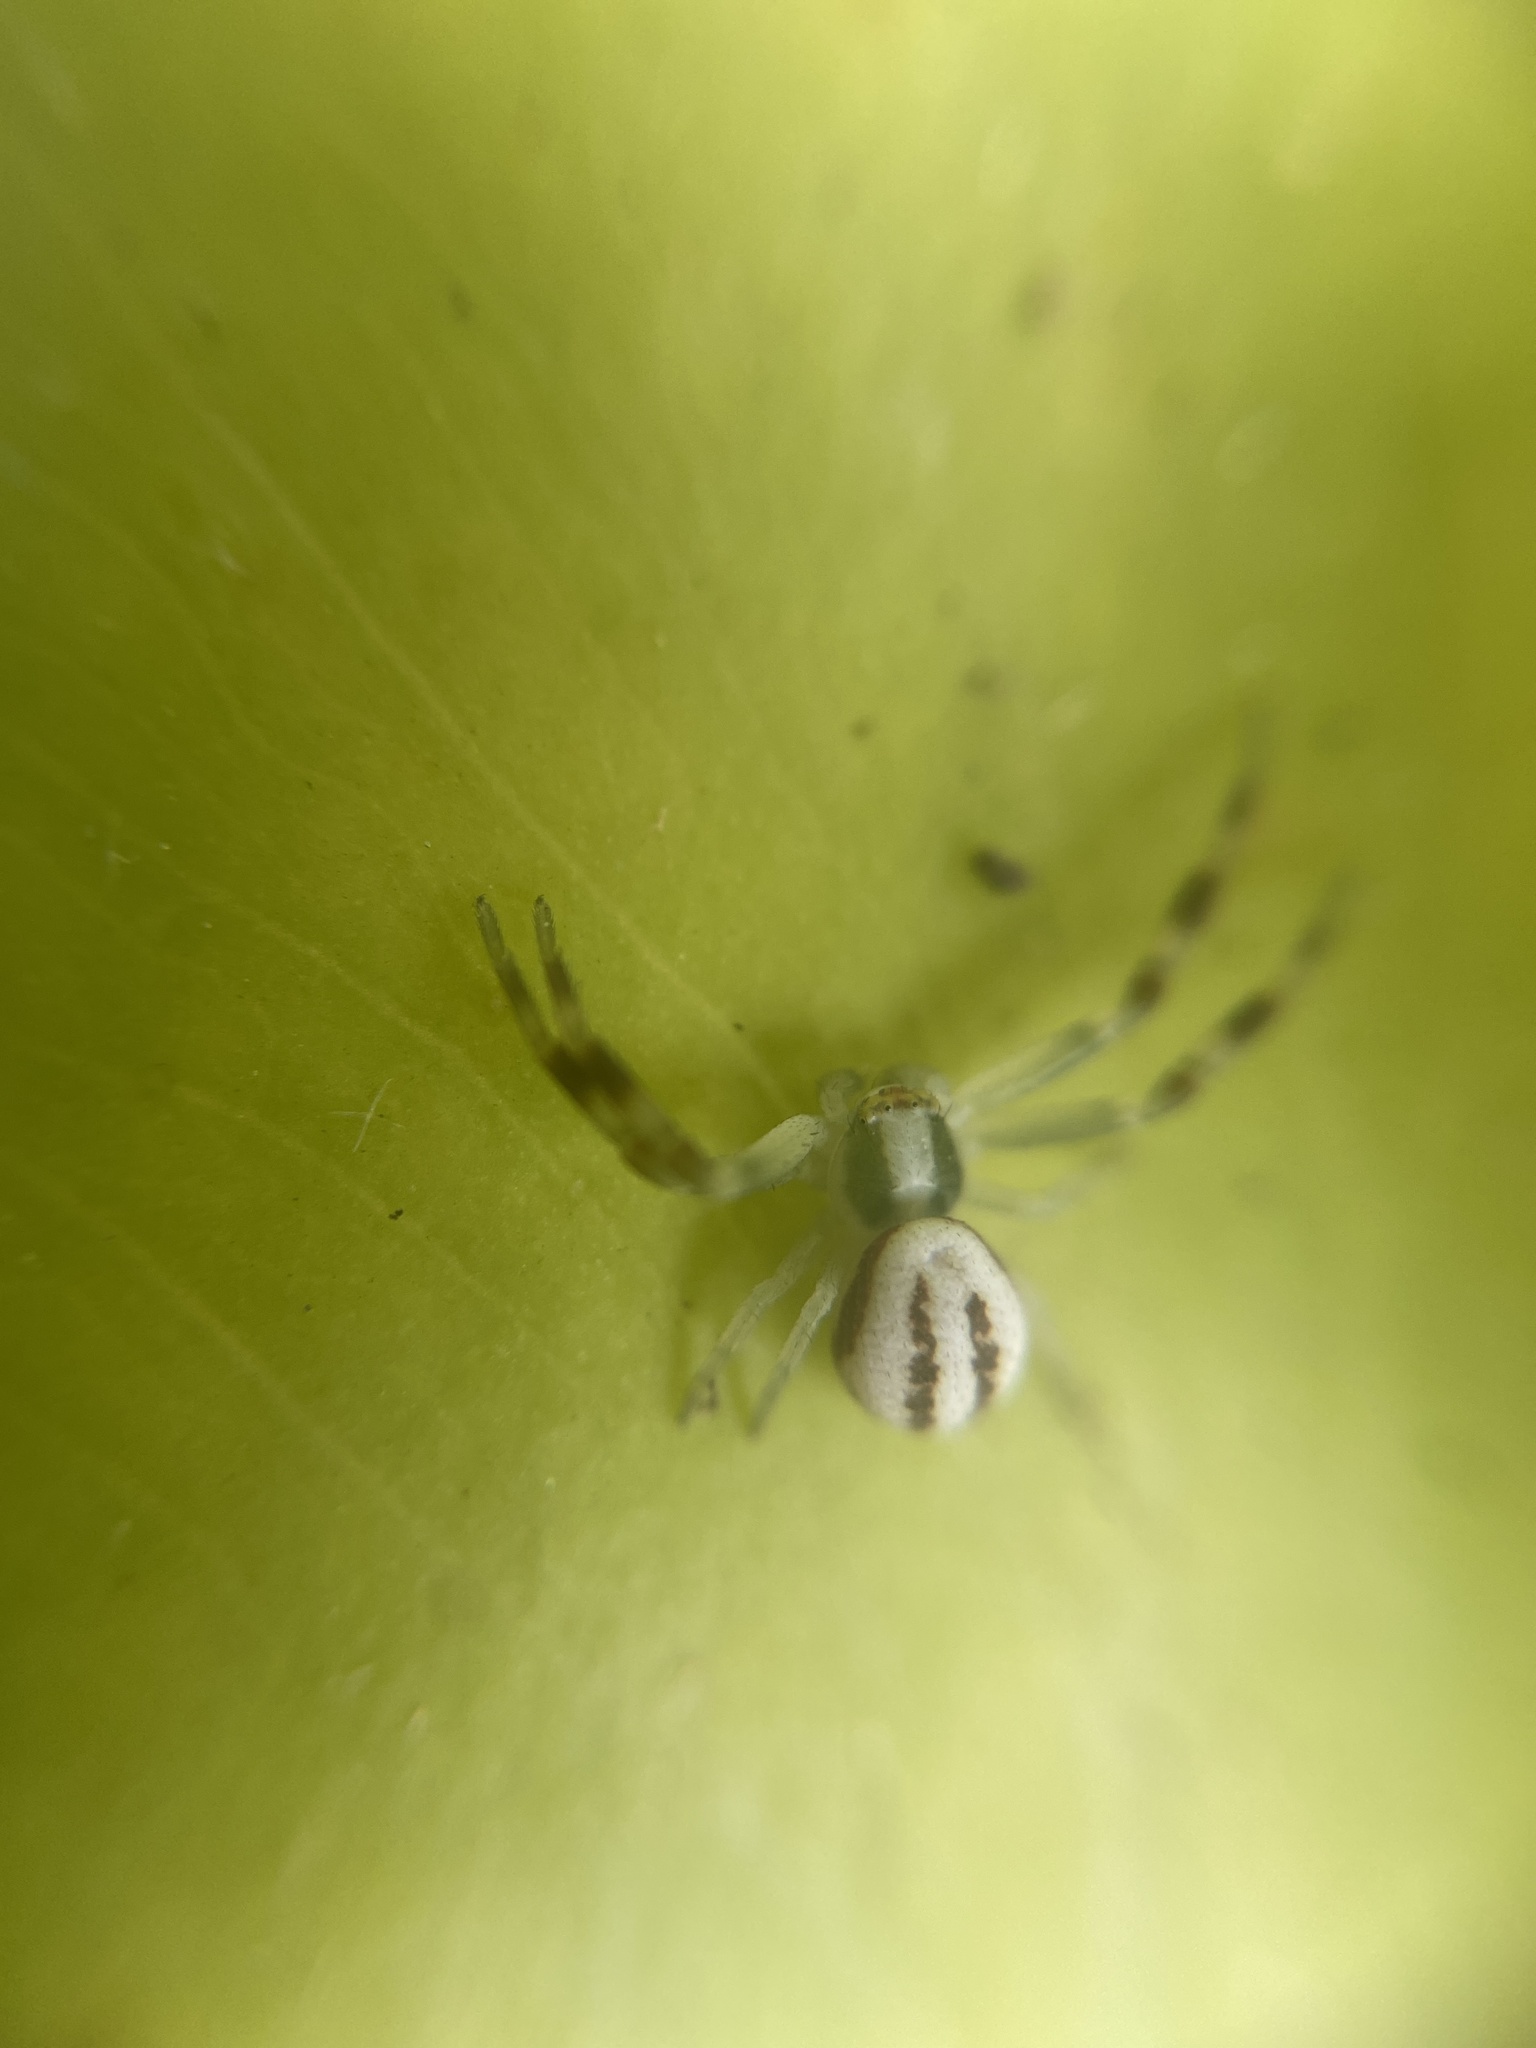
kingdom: Animalia
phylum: Arthropoda
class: Arachnida
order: Araneae
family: Thomisidae
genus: Misumena
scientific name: Misumena vatia
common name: Goldenrod crab spider
